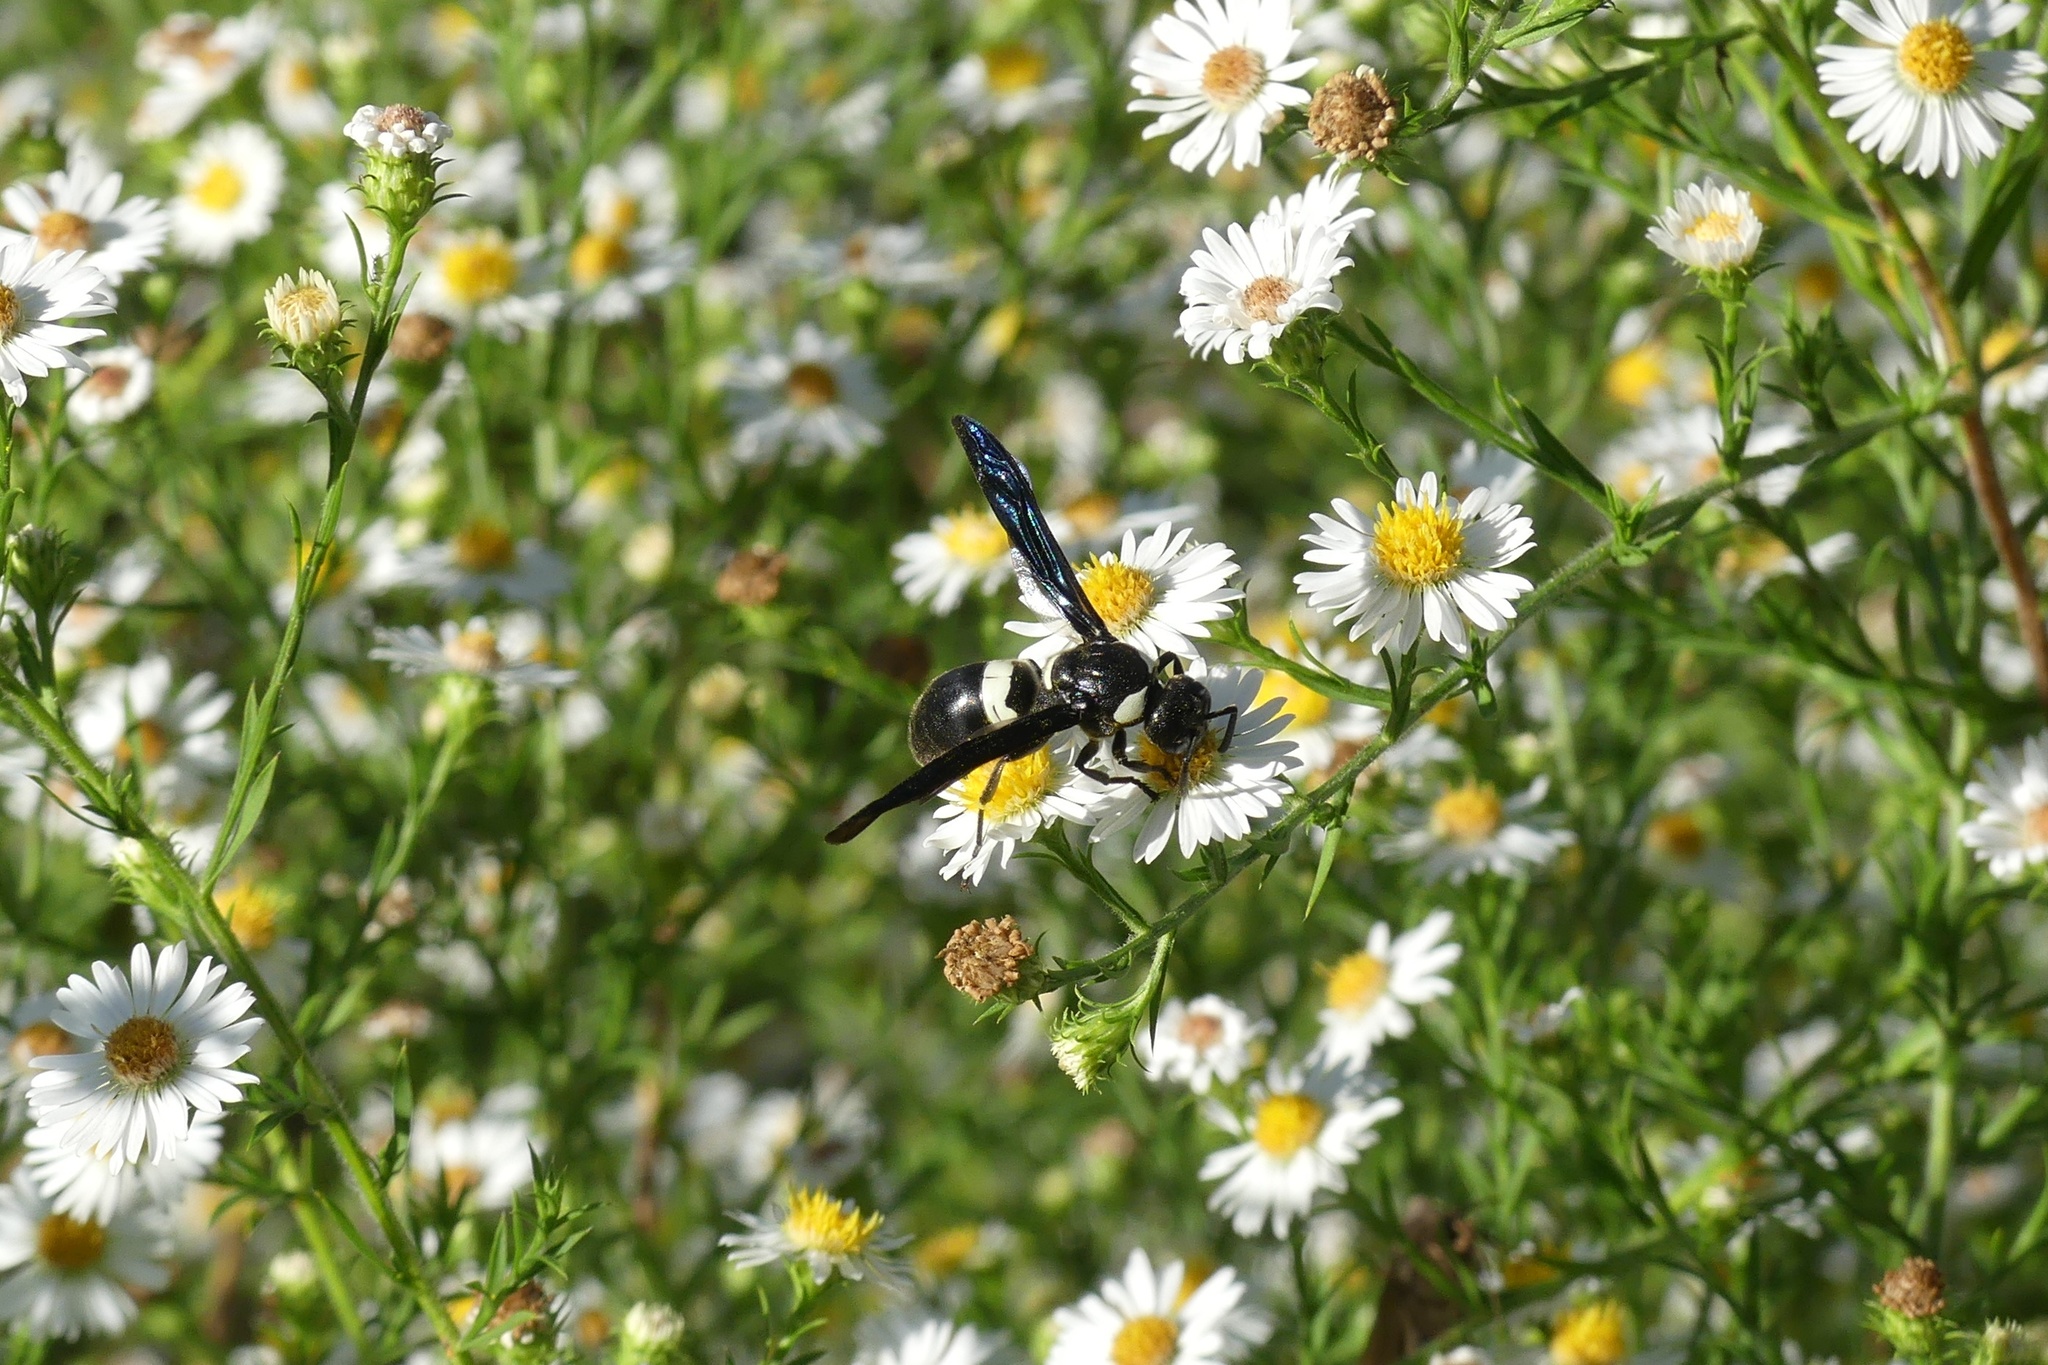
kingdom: Animalia
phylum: Arthropoda
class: Insecta
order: Hymenoptera
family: Eumenidae
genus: Monobia
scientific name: Monobia quadridens
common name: Four-toothed mason wasp
